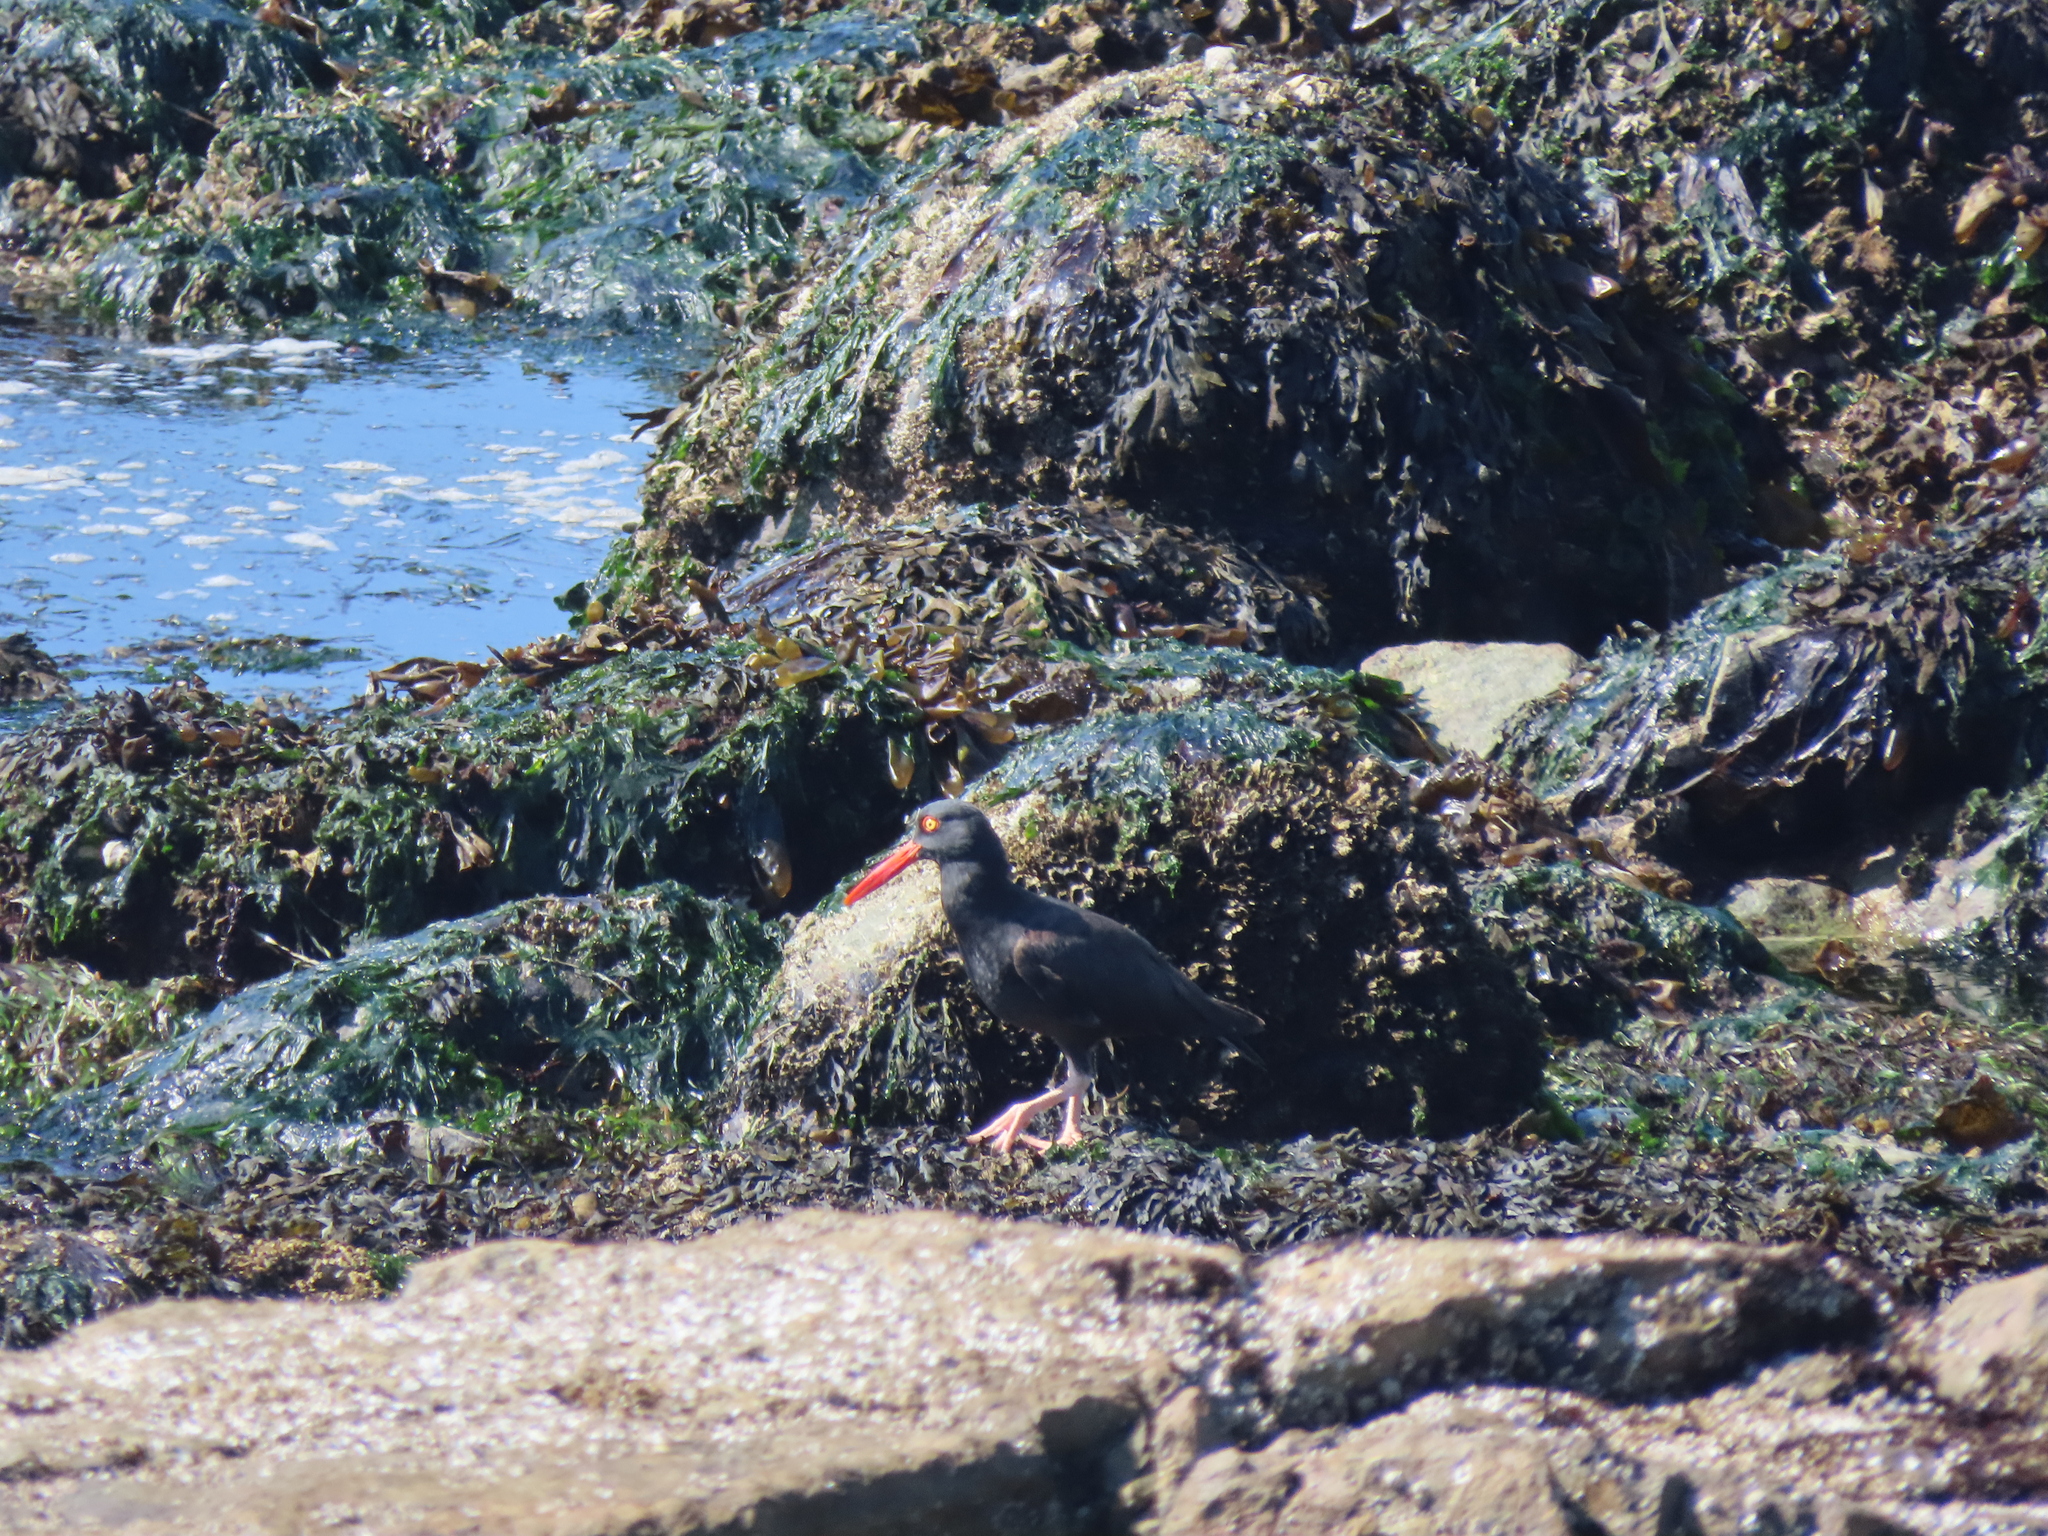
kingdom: Animalia
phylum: Chordata
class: Aves
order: Charadriiformes
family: Haematopodidae
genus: Haematopus
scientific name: Haematopus bachmani
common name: Black oystercatcher
